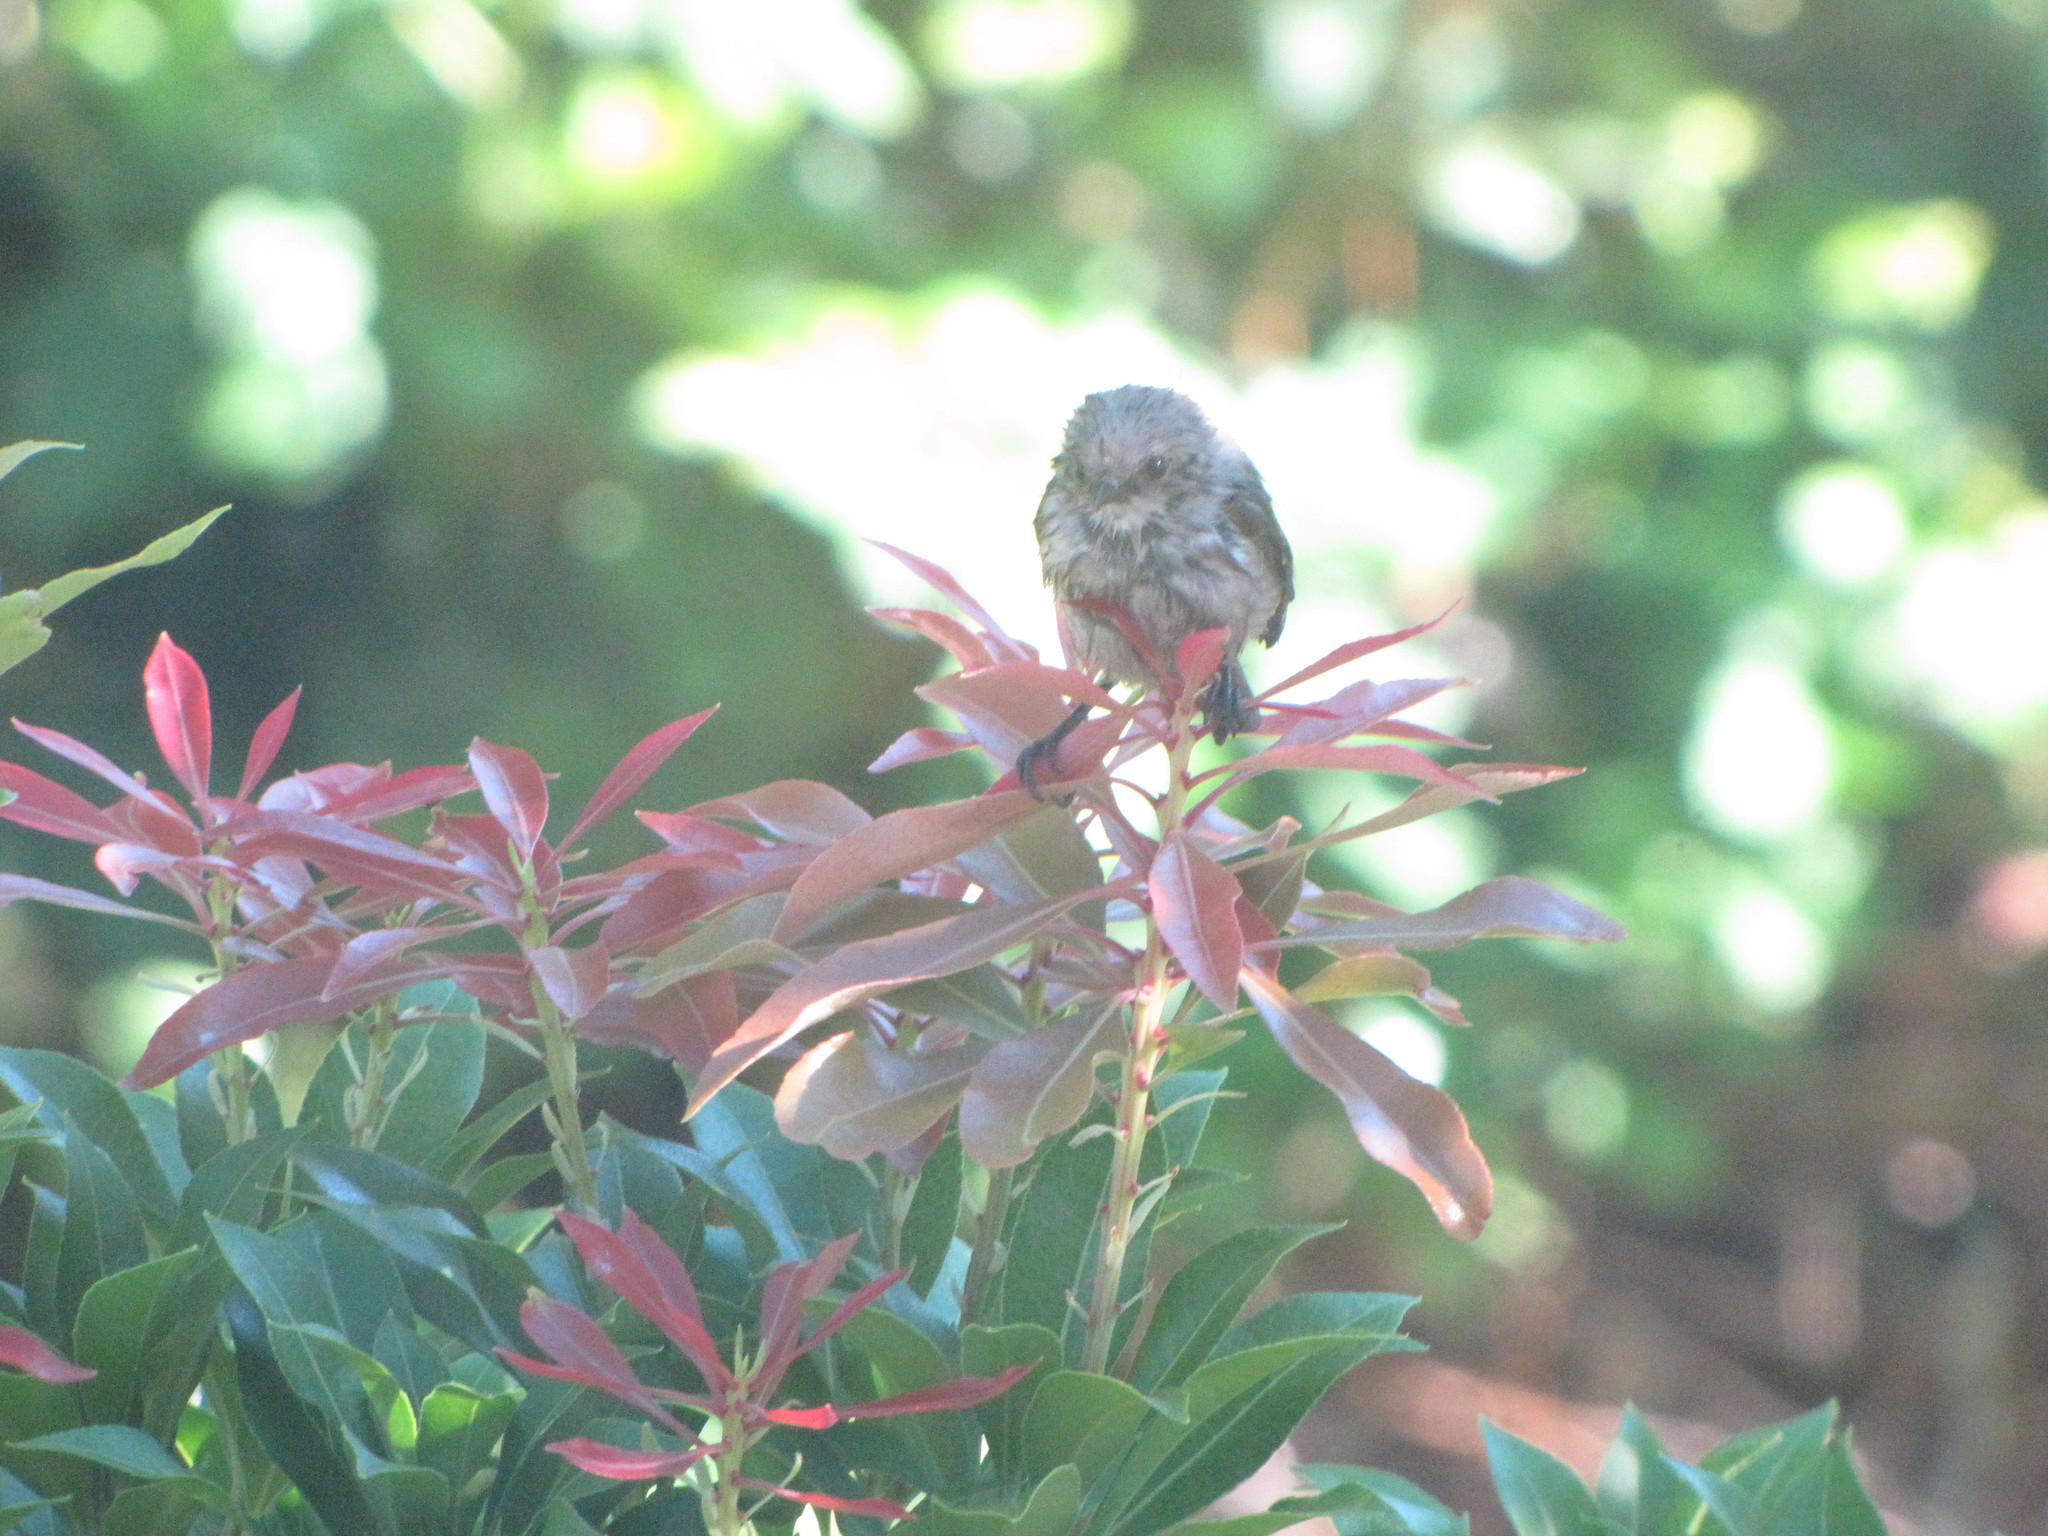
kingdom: Animalia
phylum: Chordata
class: Aves
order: Passeriformes
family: Aegithalidae
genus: Psaltriparus
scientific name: Psaltriparus minimus
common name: American bushtit
